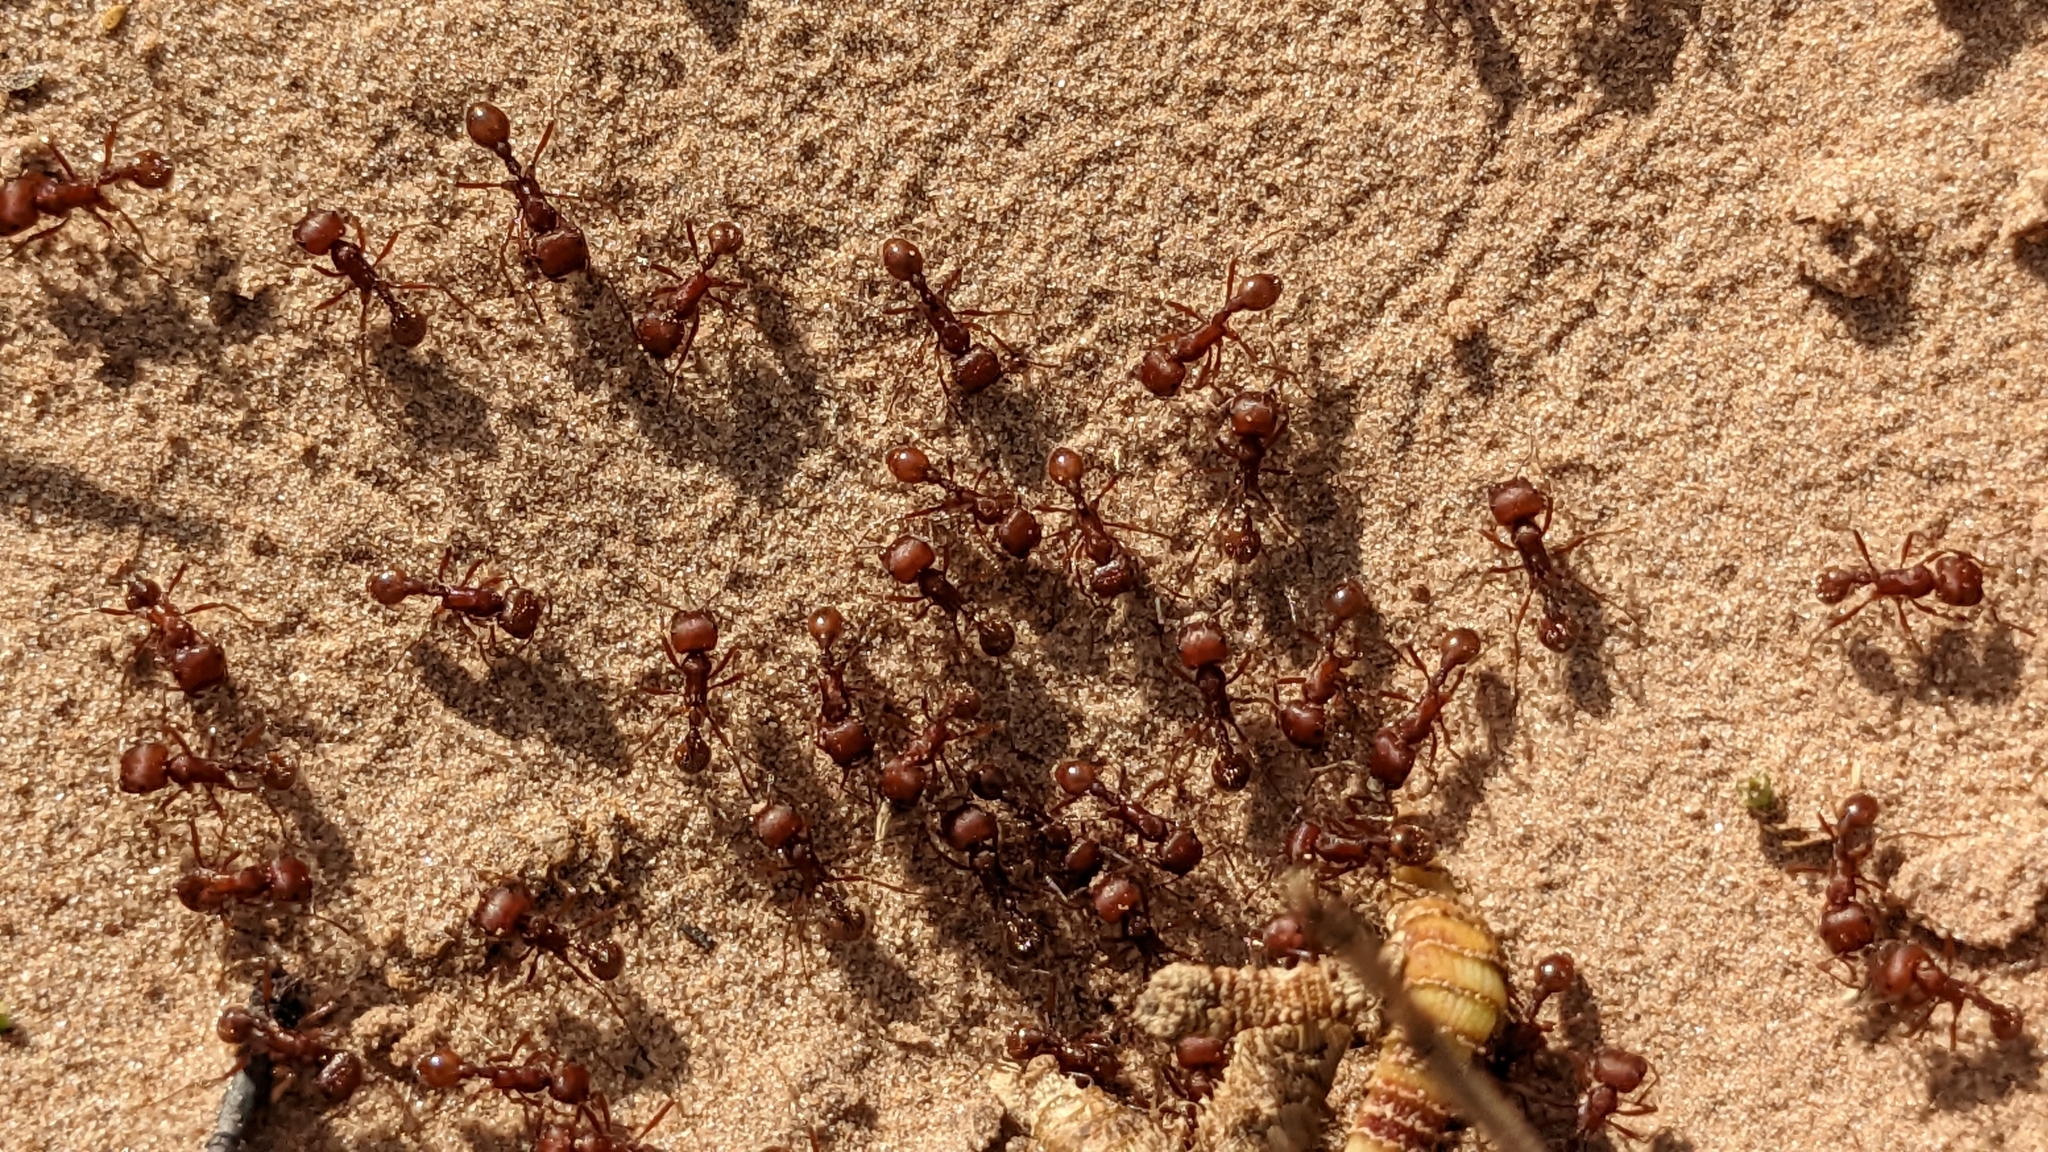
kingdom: Animalia
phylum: Arthropoda
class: Insecta
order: Hymenoptera
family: Formicidae
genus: Pogonomyrmex
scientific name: Pogonomyrmex comanche
